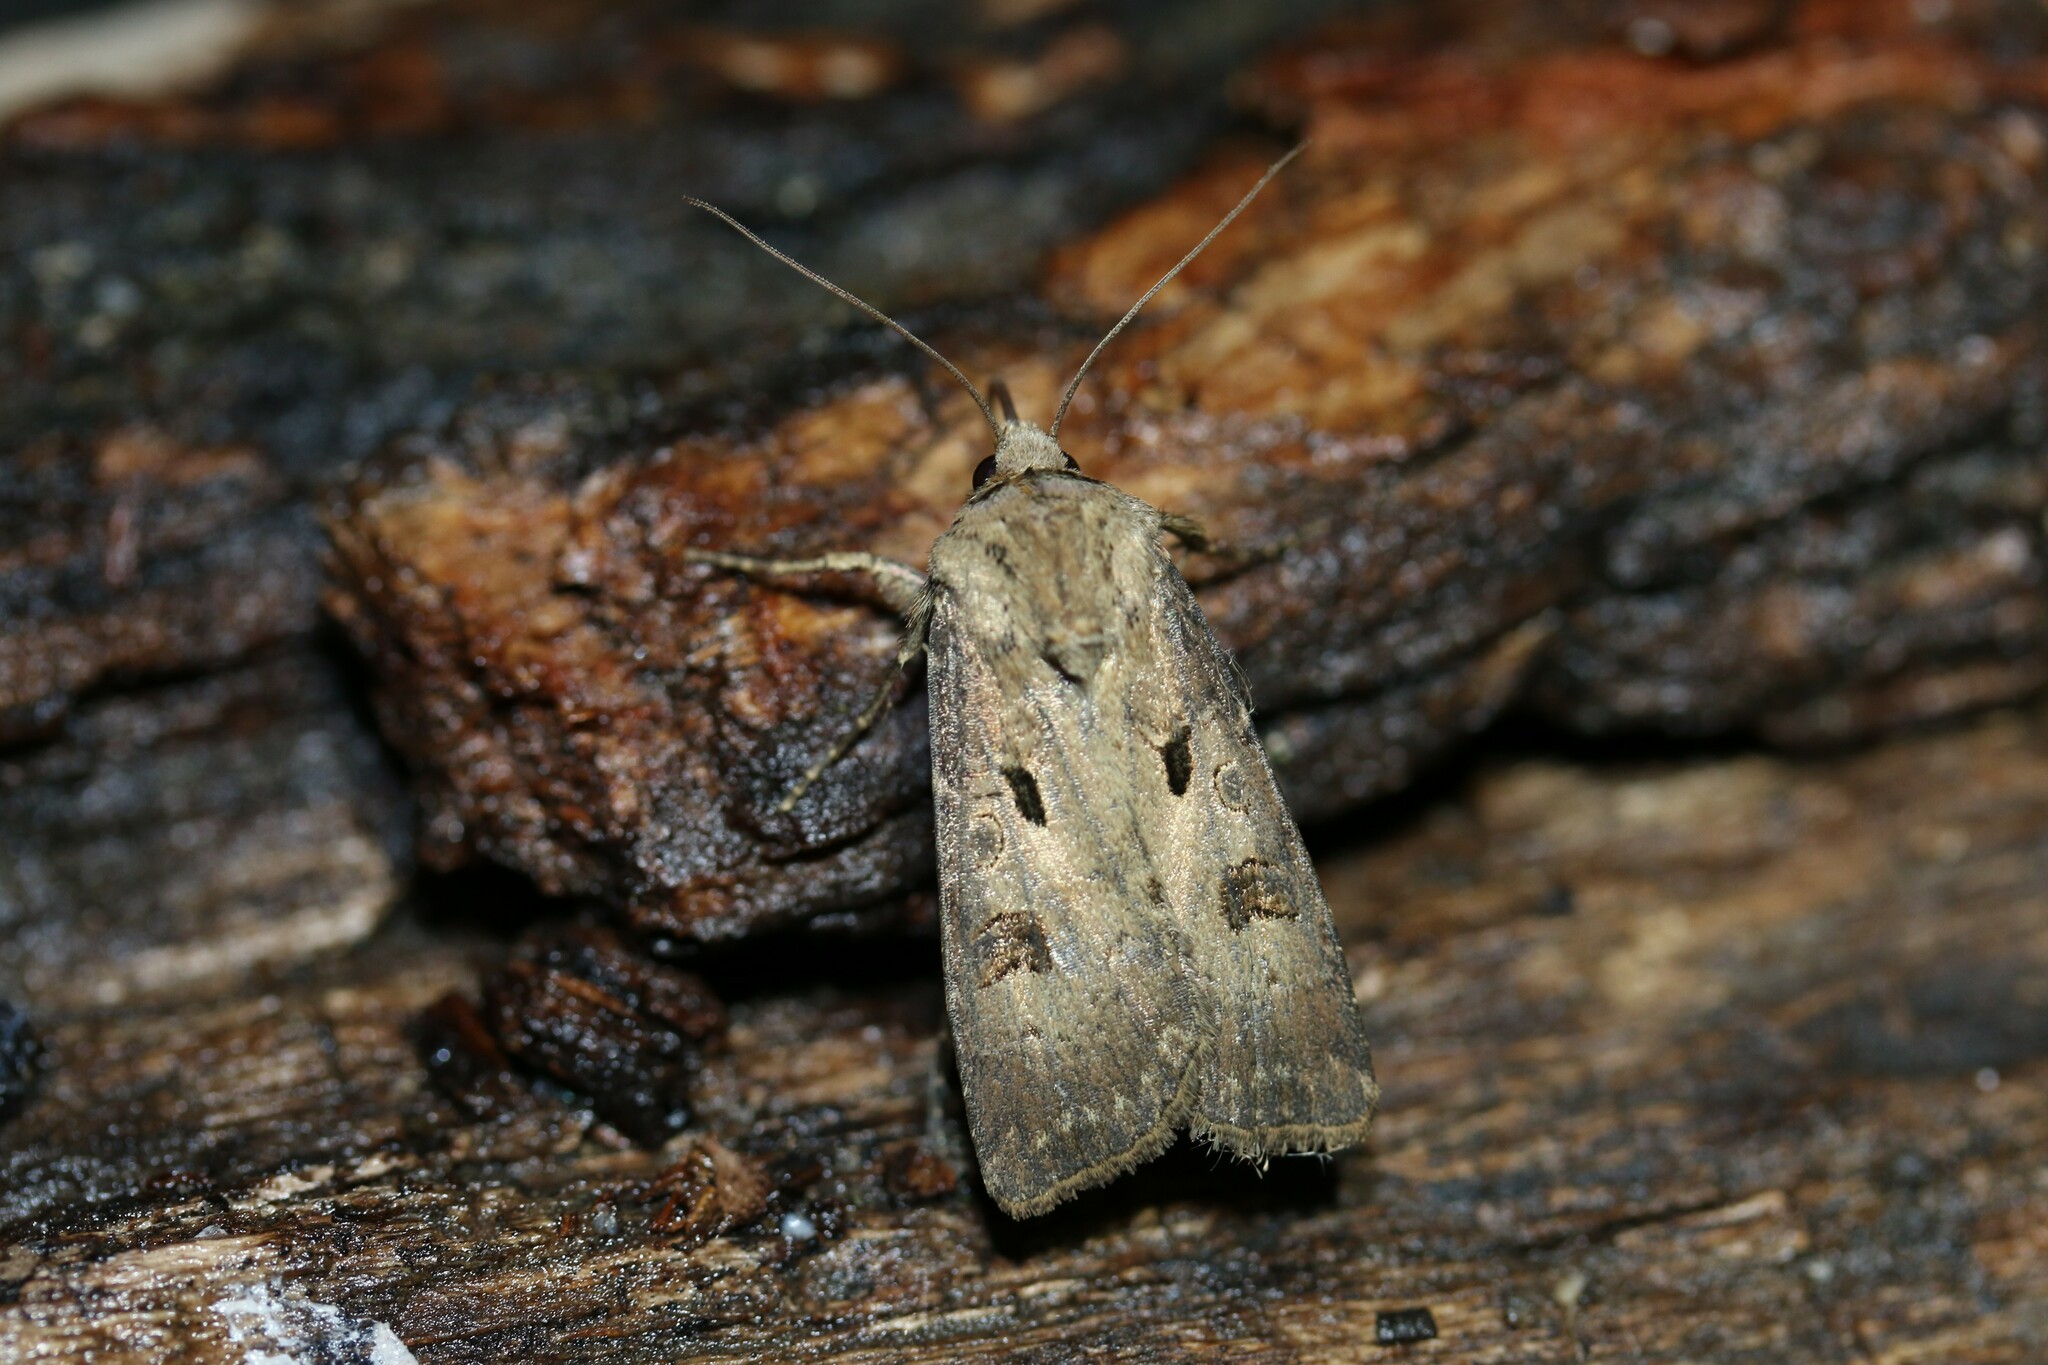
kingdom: Animalia
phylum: Arthropoda
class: Insecta
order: Lepidoptera
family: Noctuidae
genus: Agrotis
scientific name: Agrotis exclamationis
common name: Heart and dart
